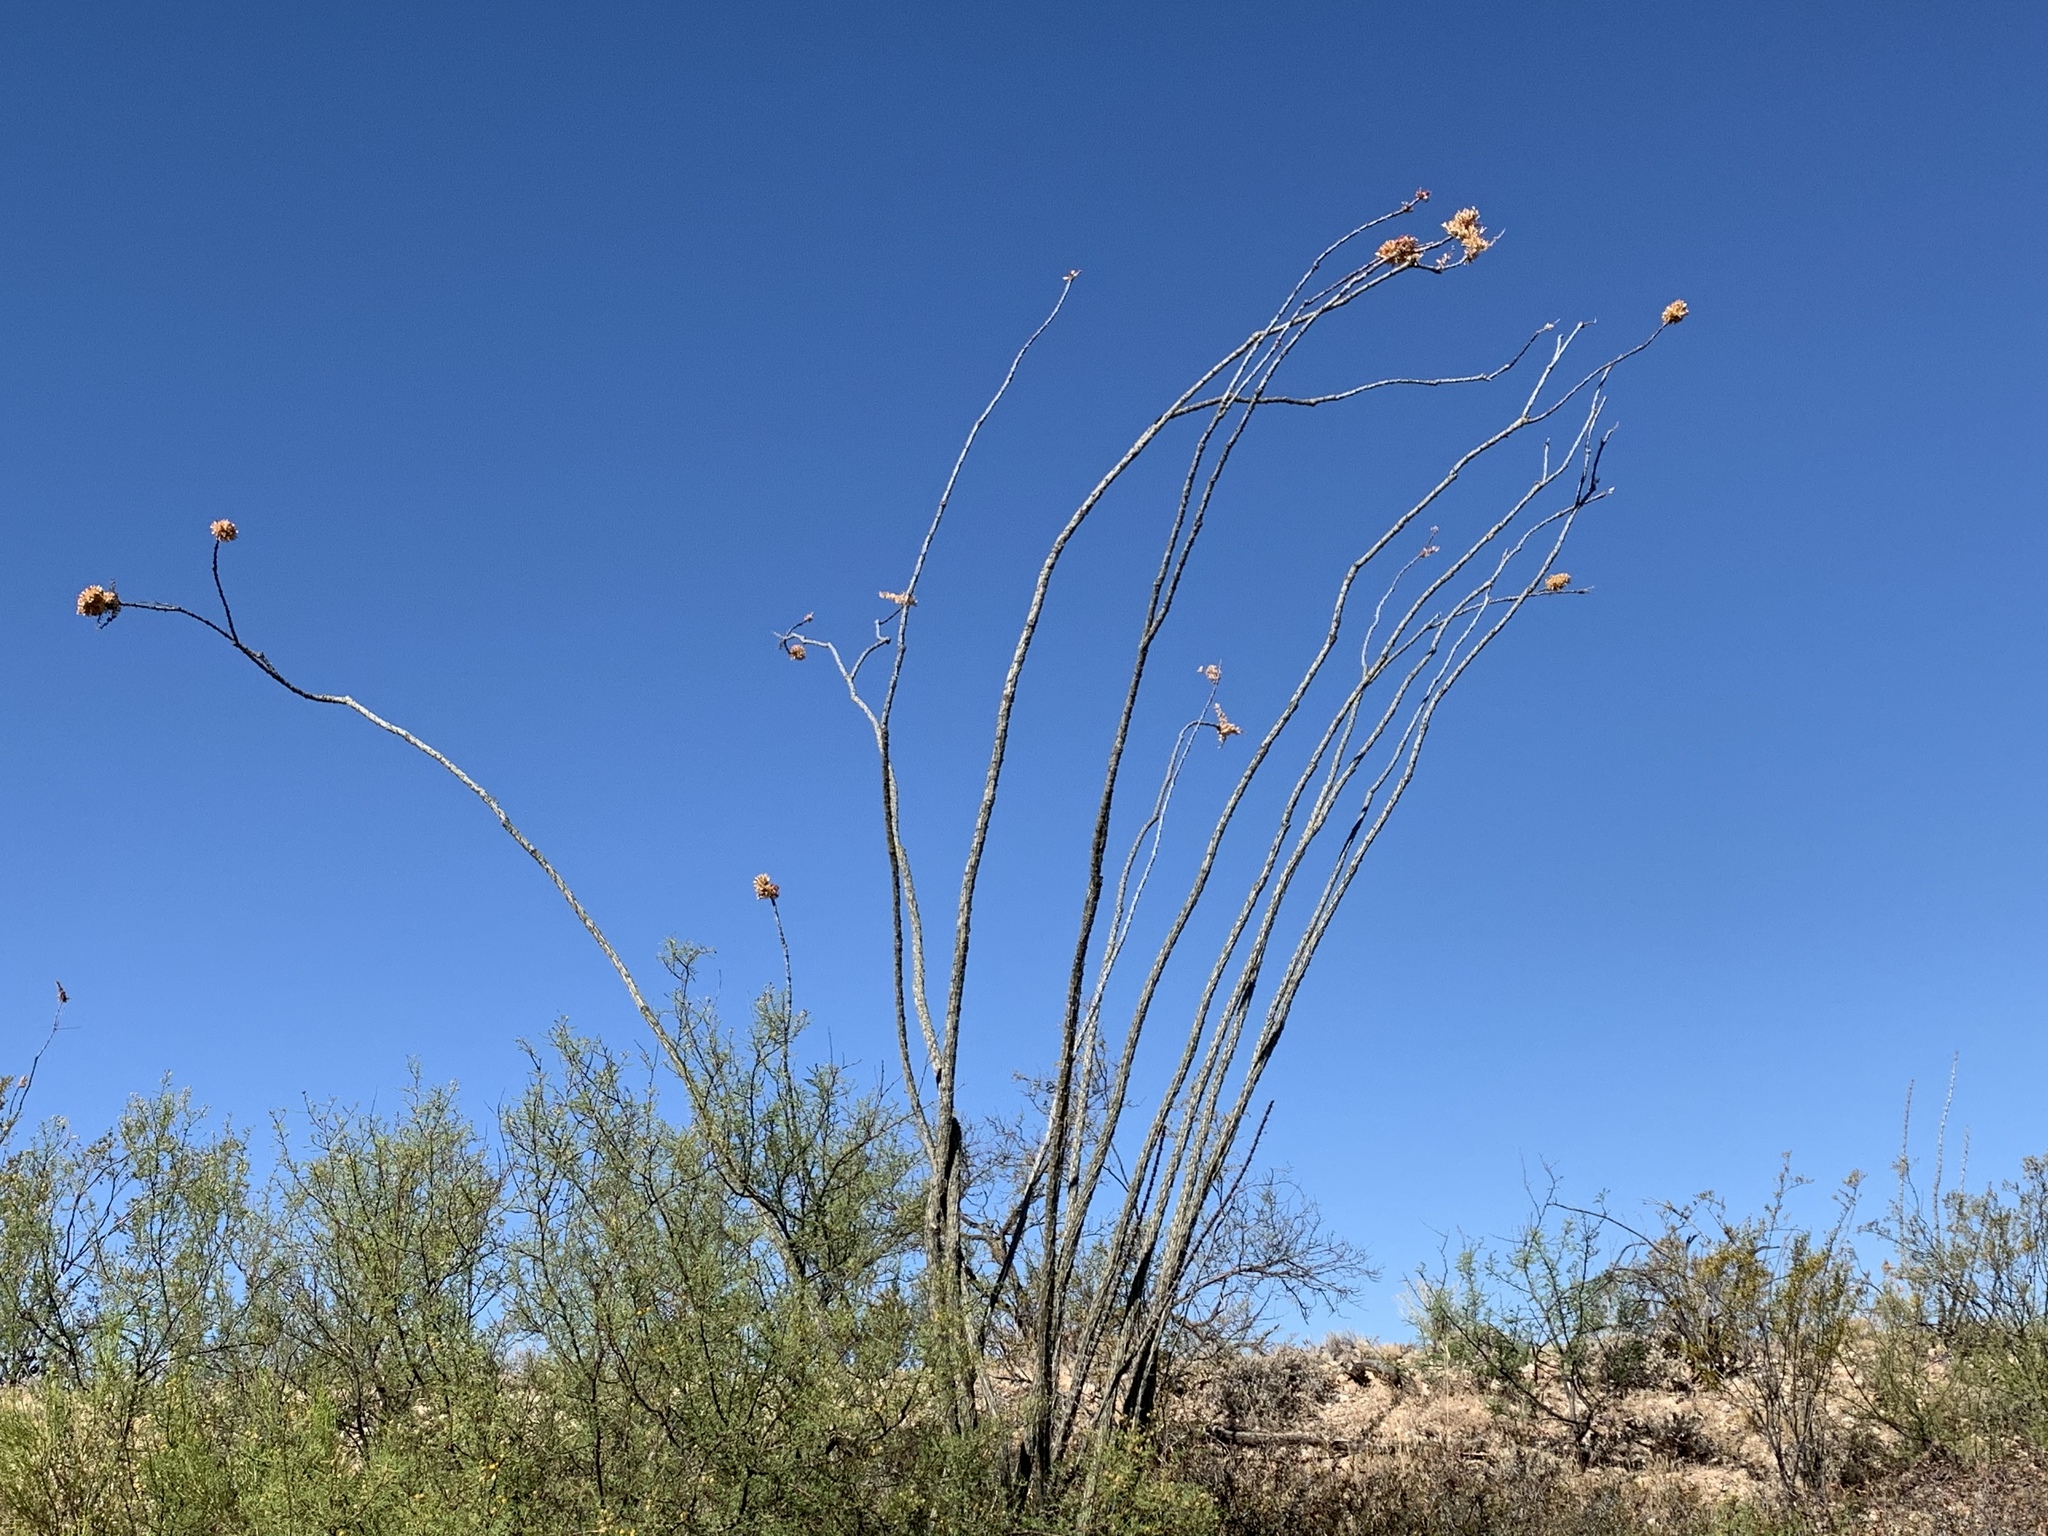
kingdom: Plantae
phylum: Tracheophyta
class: Magnoliopsida
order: Ericales
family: Fouquieriaceae
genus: Fouquieria
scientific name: Fouquieria splendens
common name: Vine-cactus
